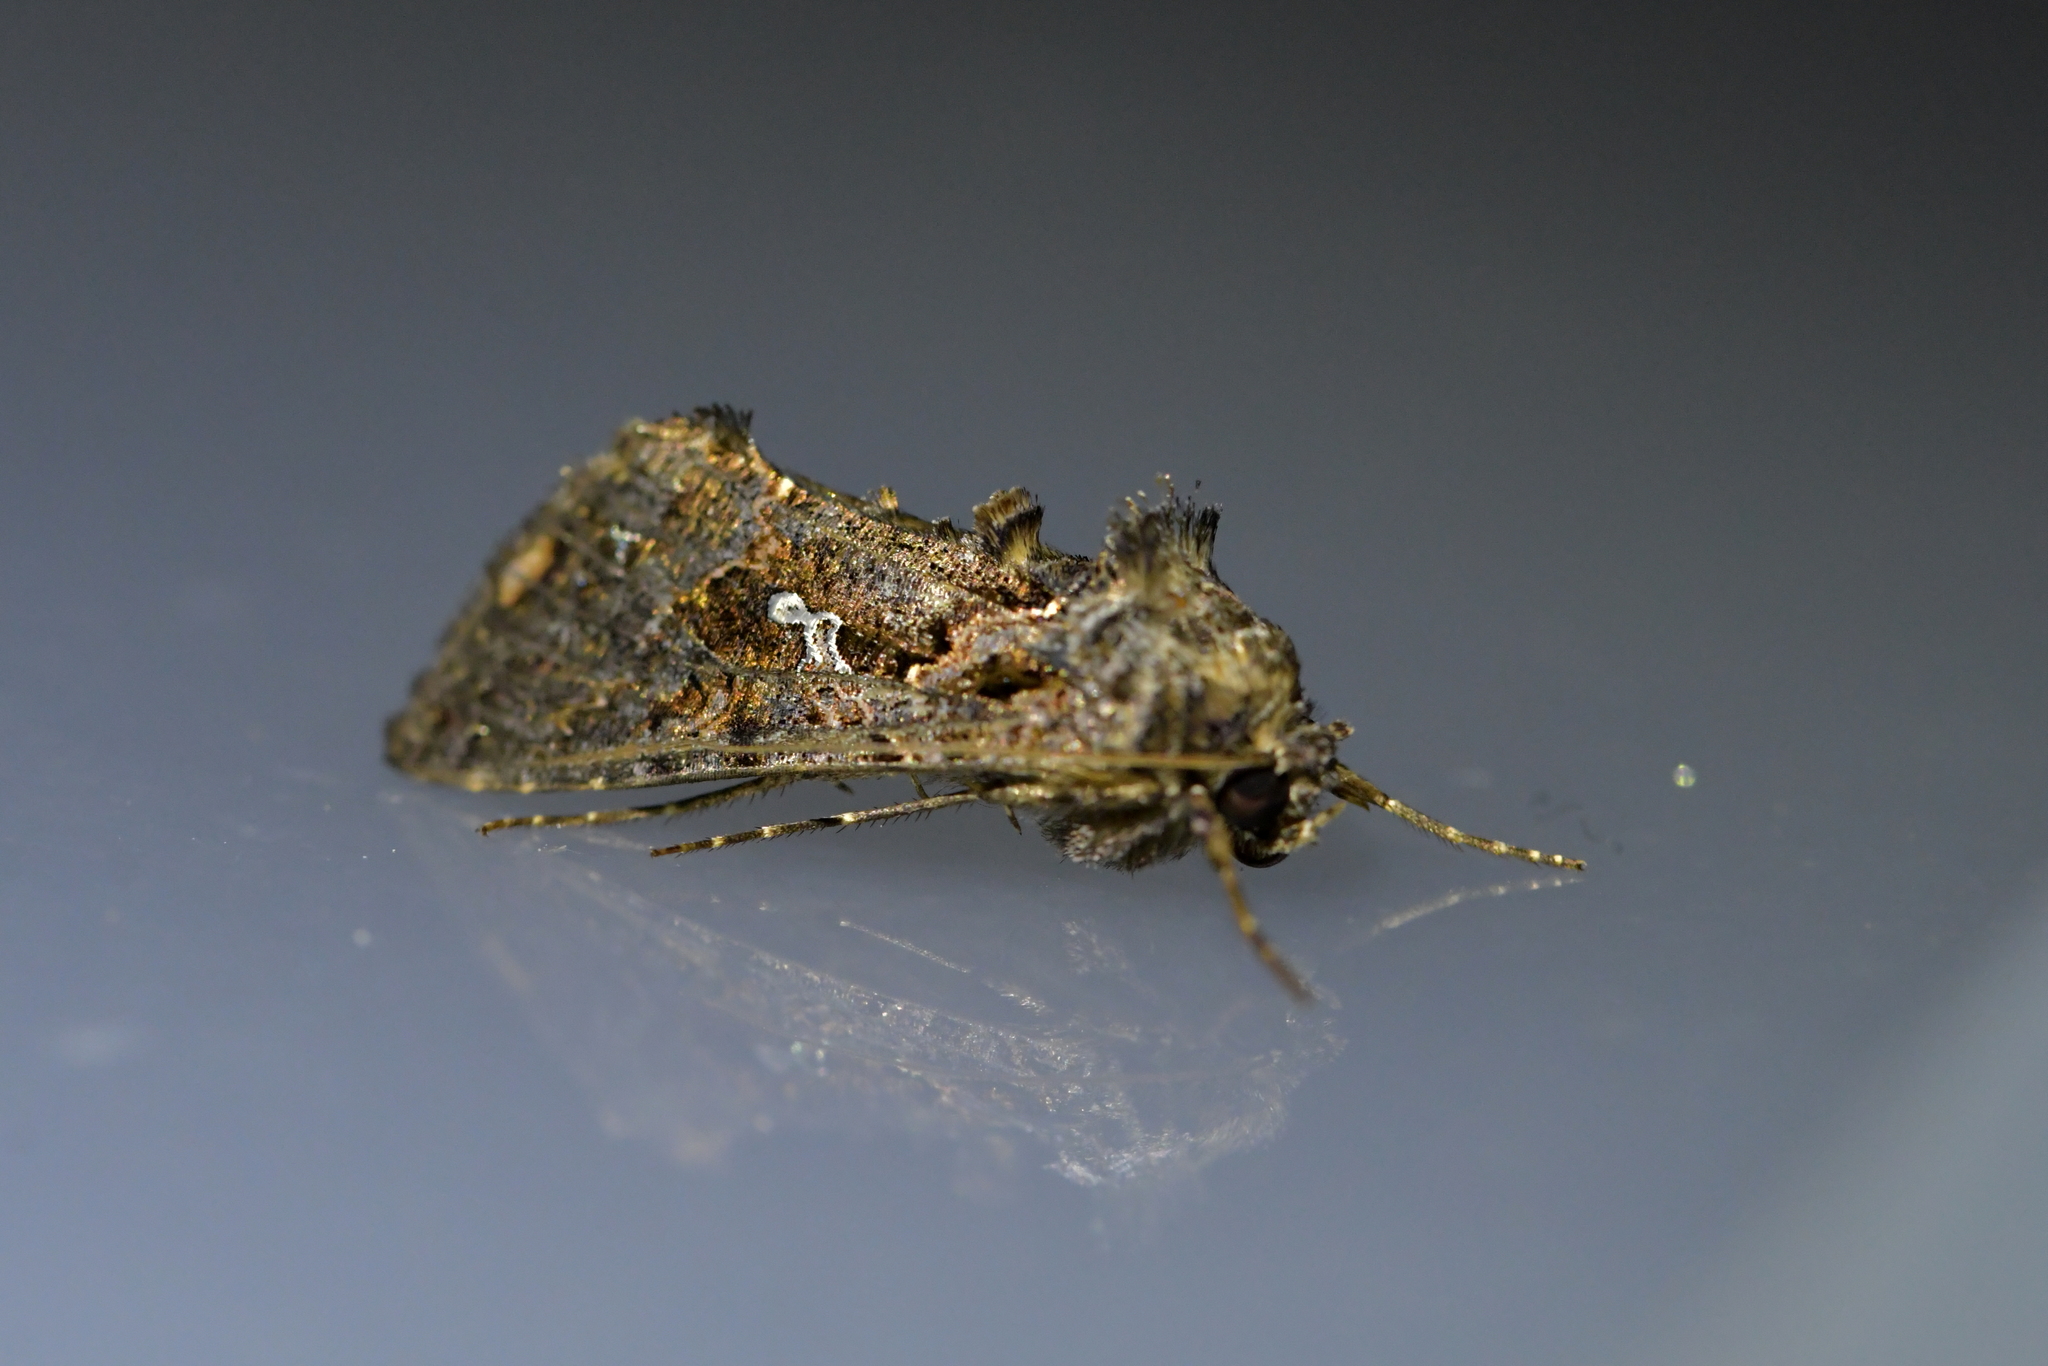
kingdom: Animalia
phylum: Arthropoda
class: Insecta
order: Lepidoptera
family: Noctuidae
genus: Ctenoplusia
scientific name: Ctenoplusia limbirena
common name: Scar bank gem
